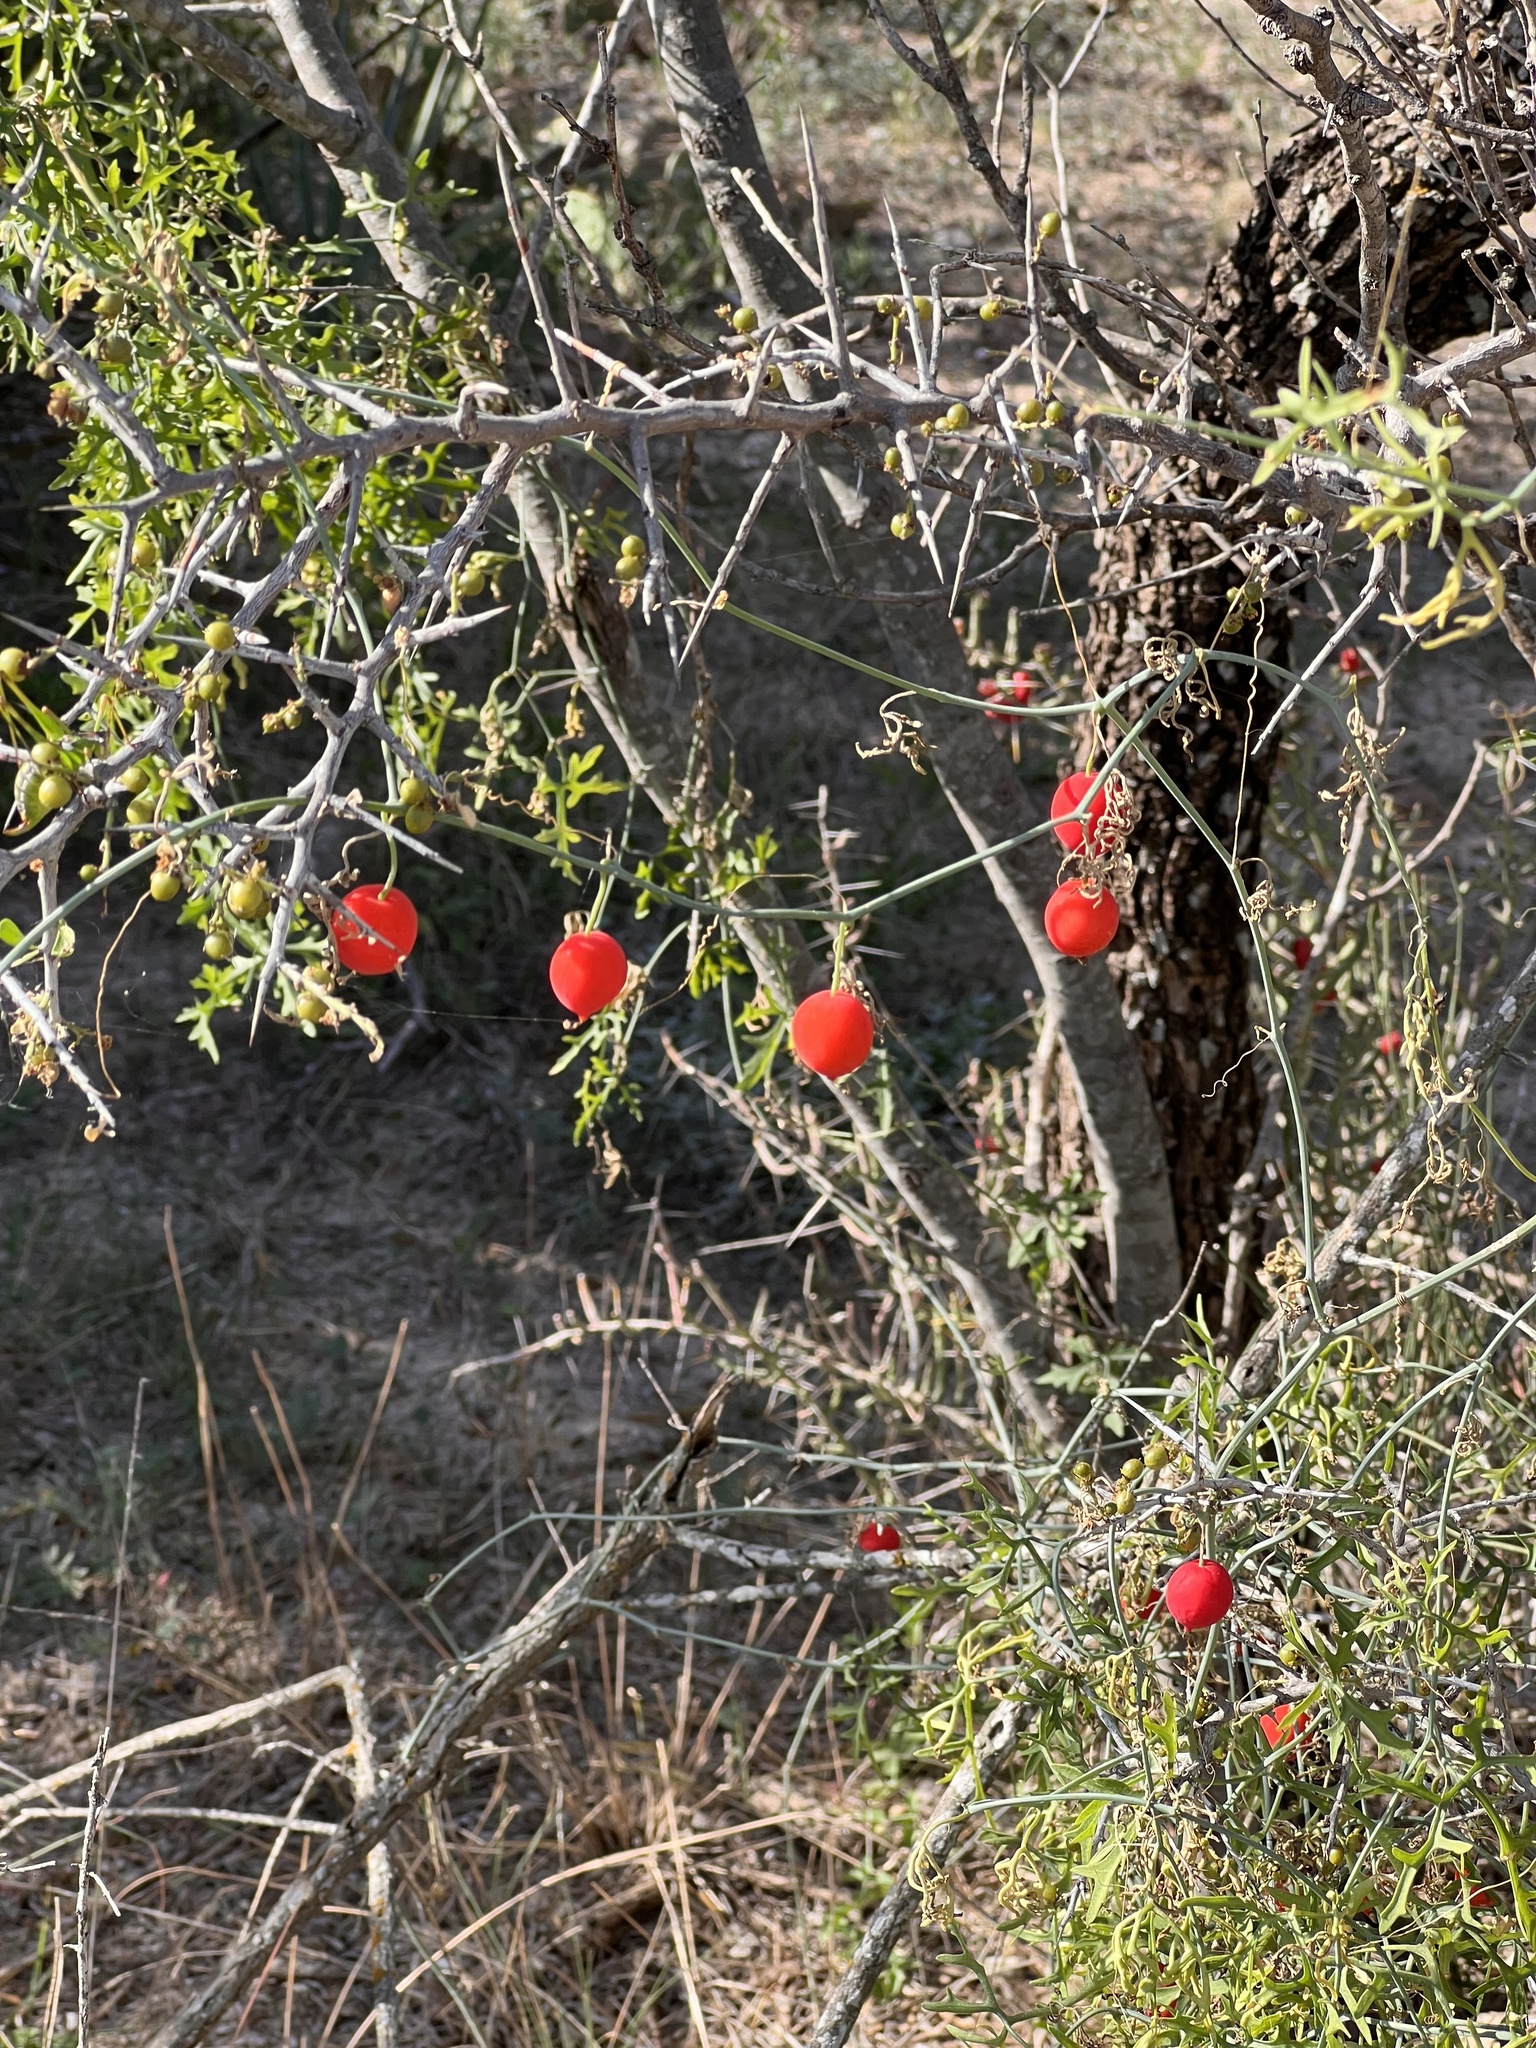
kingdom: Plantae
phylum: Tracheophyta
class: Magnoliopsida
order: Cucurbitales
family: Cucurbitaceae
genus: Ibervillea
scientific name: Ibervillea lindheimeri
